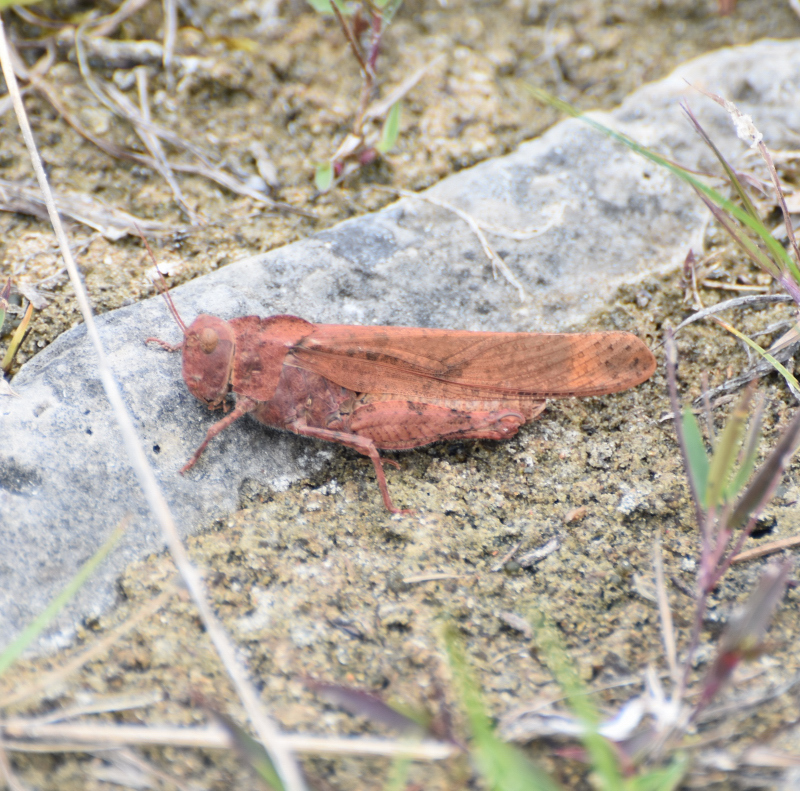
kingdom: Animalia
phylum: Arthropoda
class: Insecta
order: Orthoptera
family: Acrididae
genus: Dissosteira
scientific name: Dissosteira carolina
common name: Carolina grasshopper
